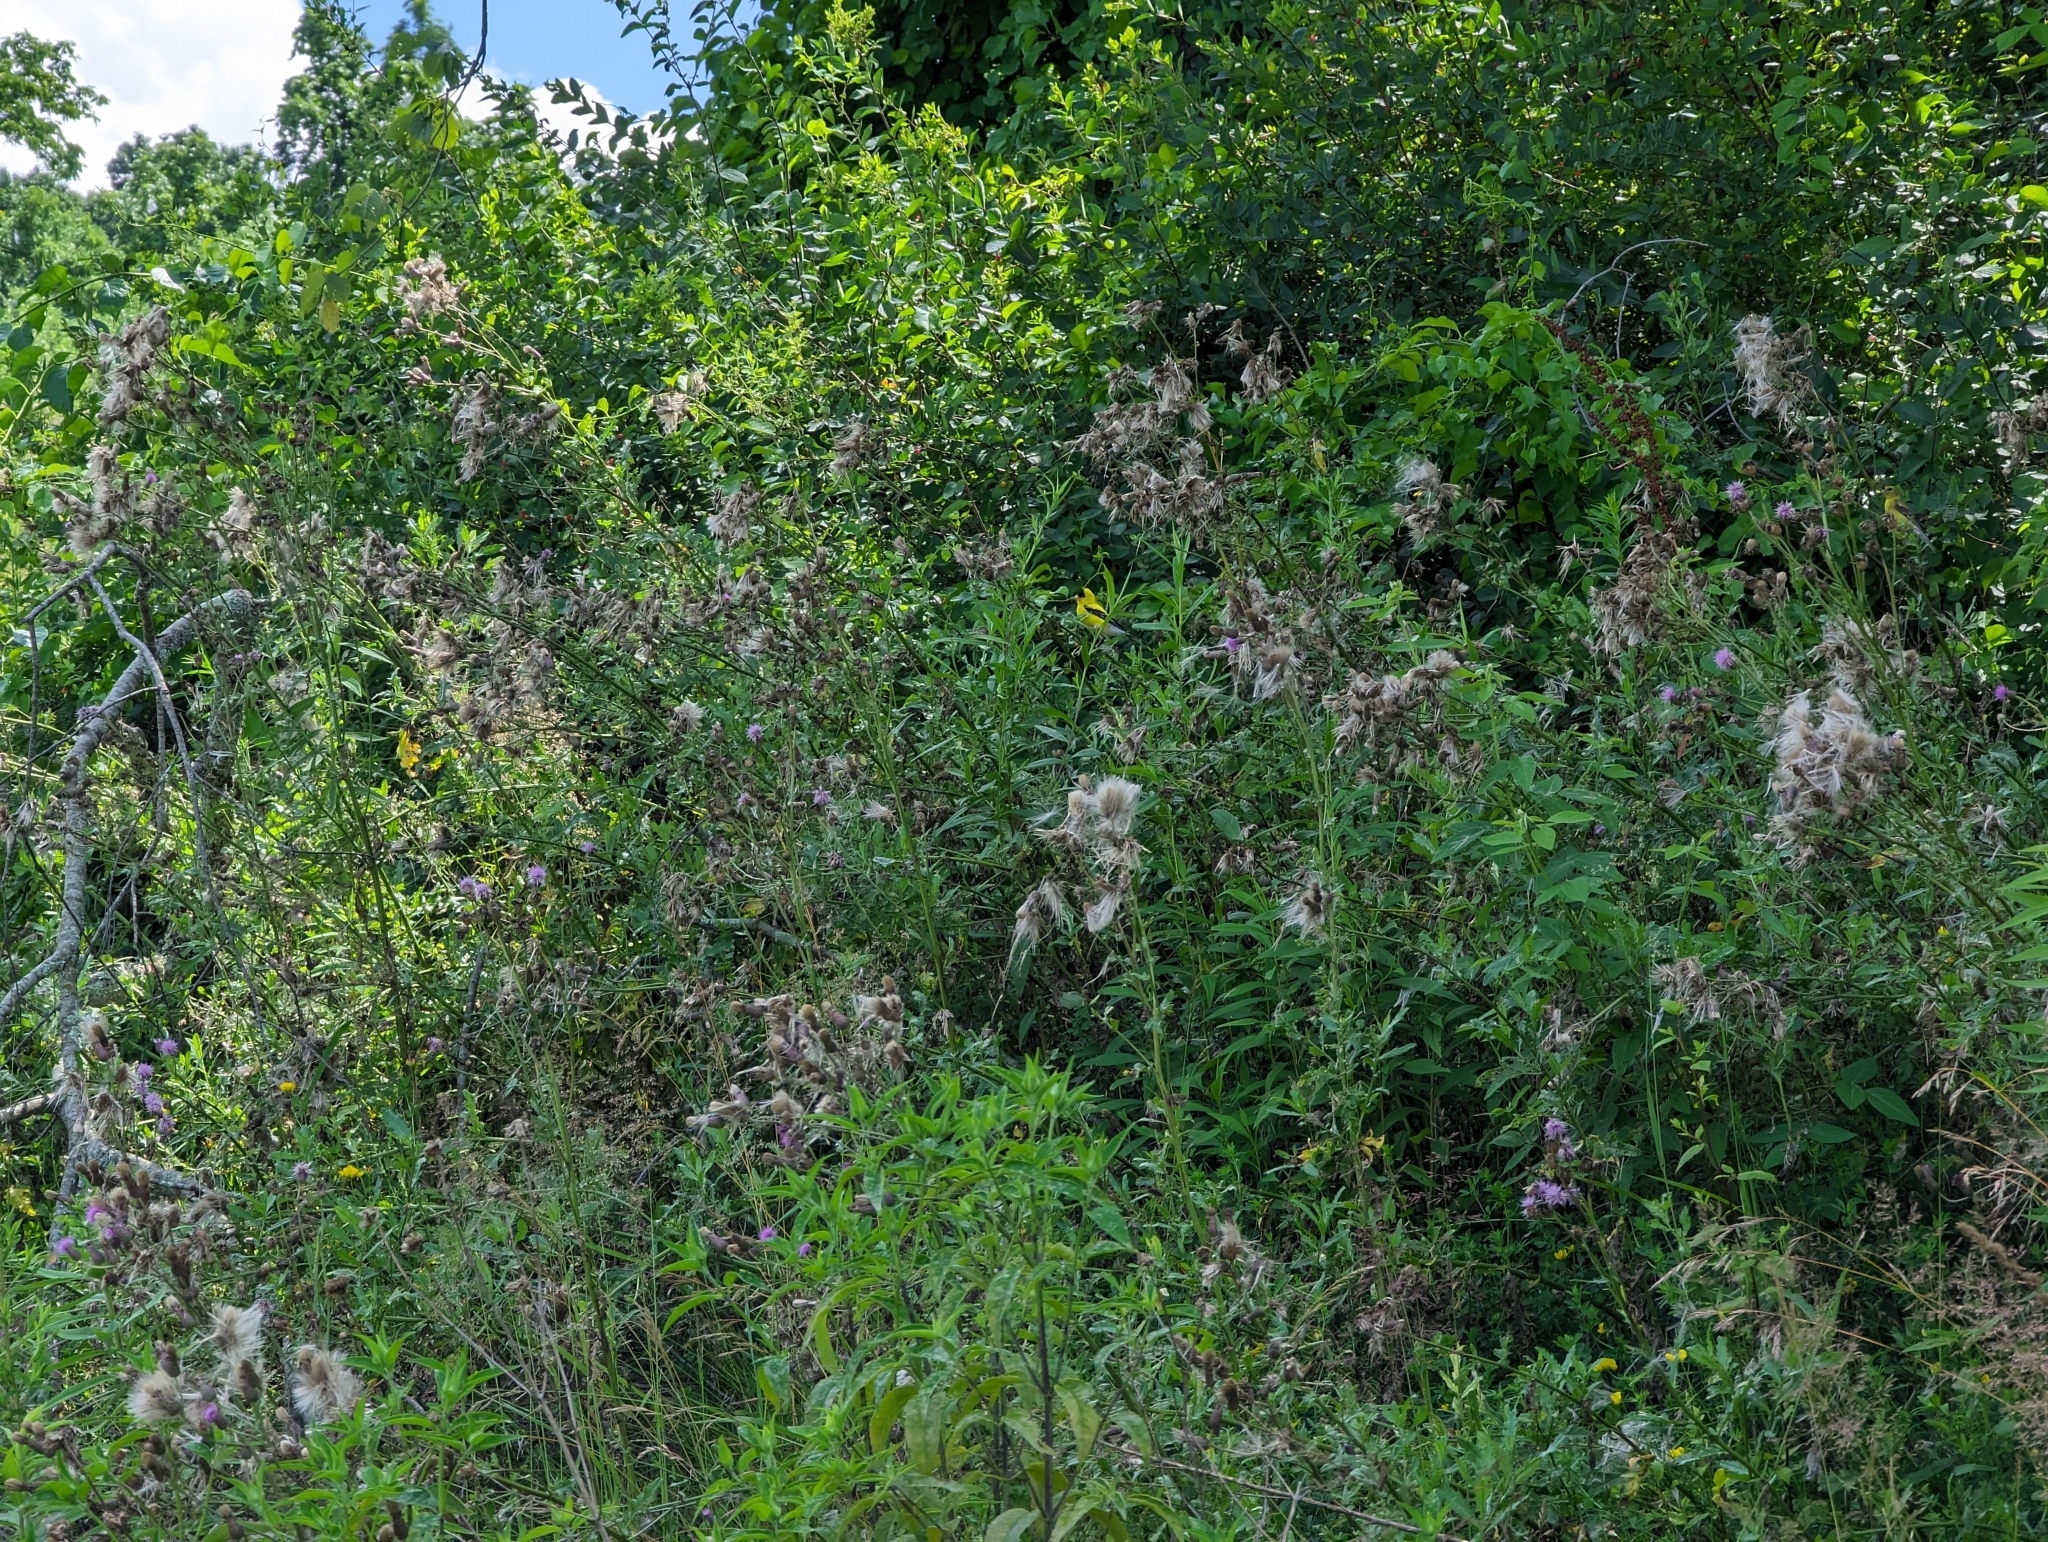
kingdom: Animalia
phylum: Chordata
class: Aves
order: Passeriformes
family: Fringillidae
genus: Spinus
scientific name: Spinus tristis
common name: American goldfinch
